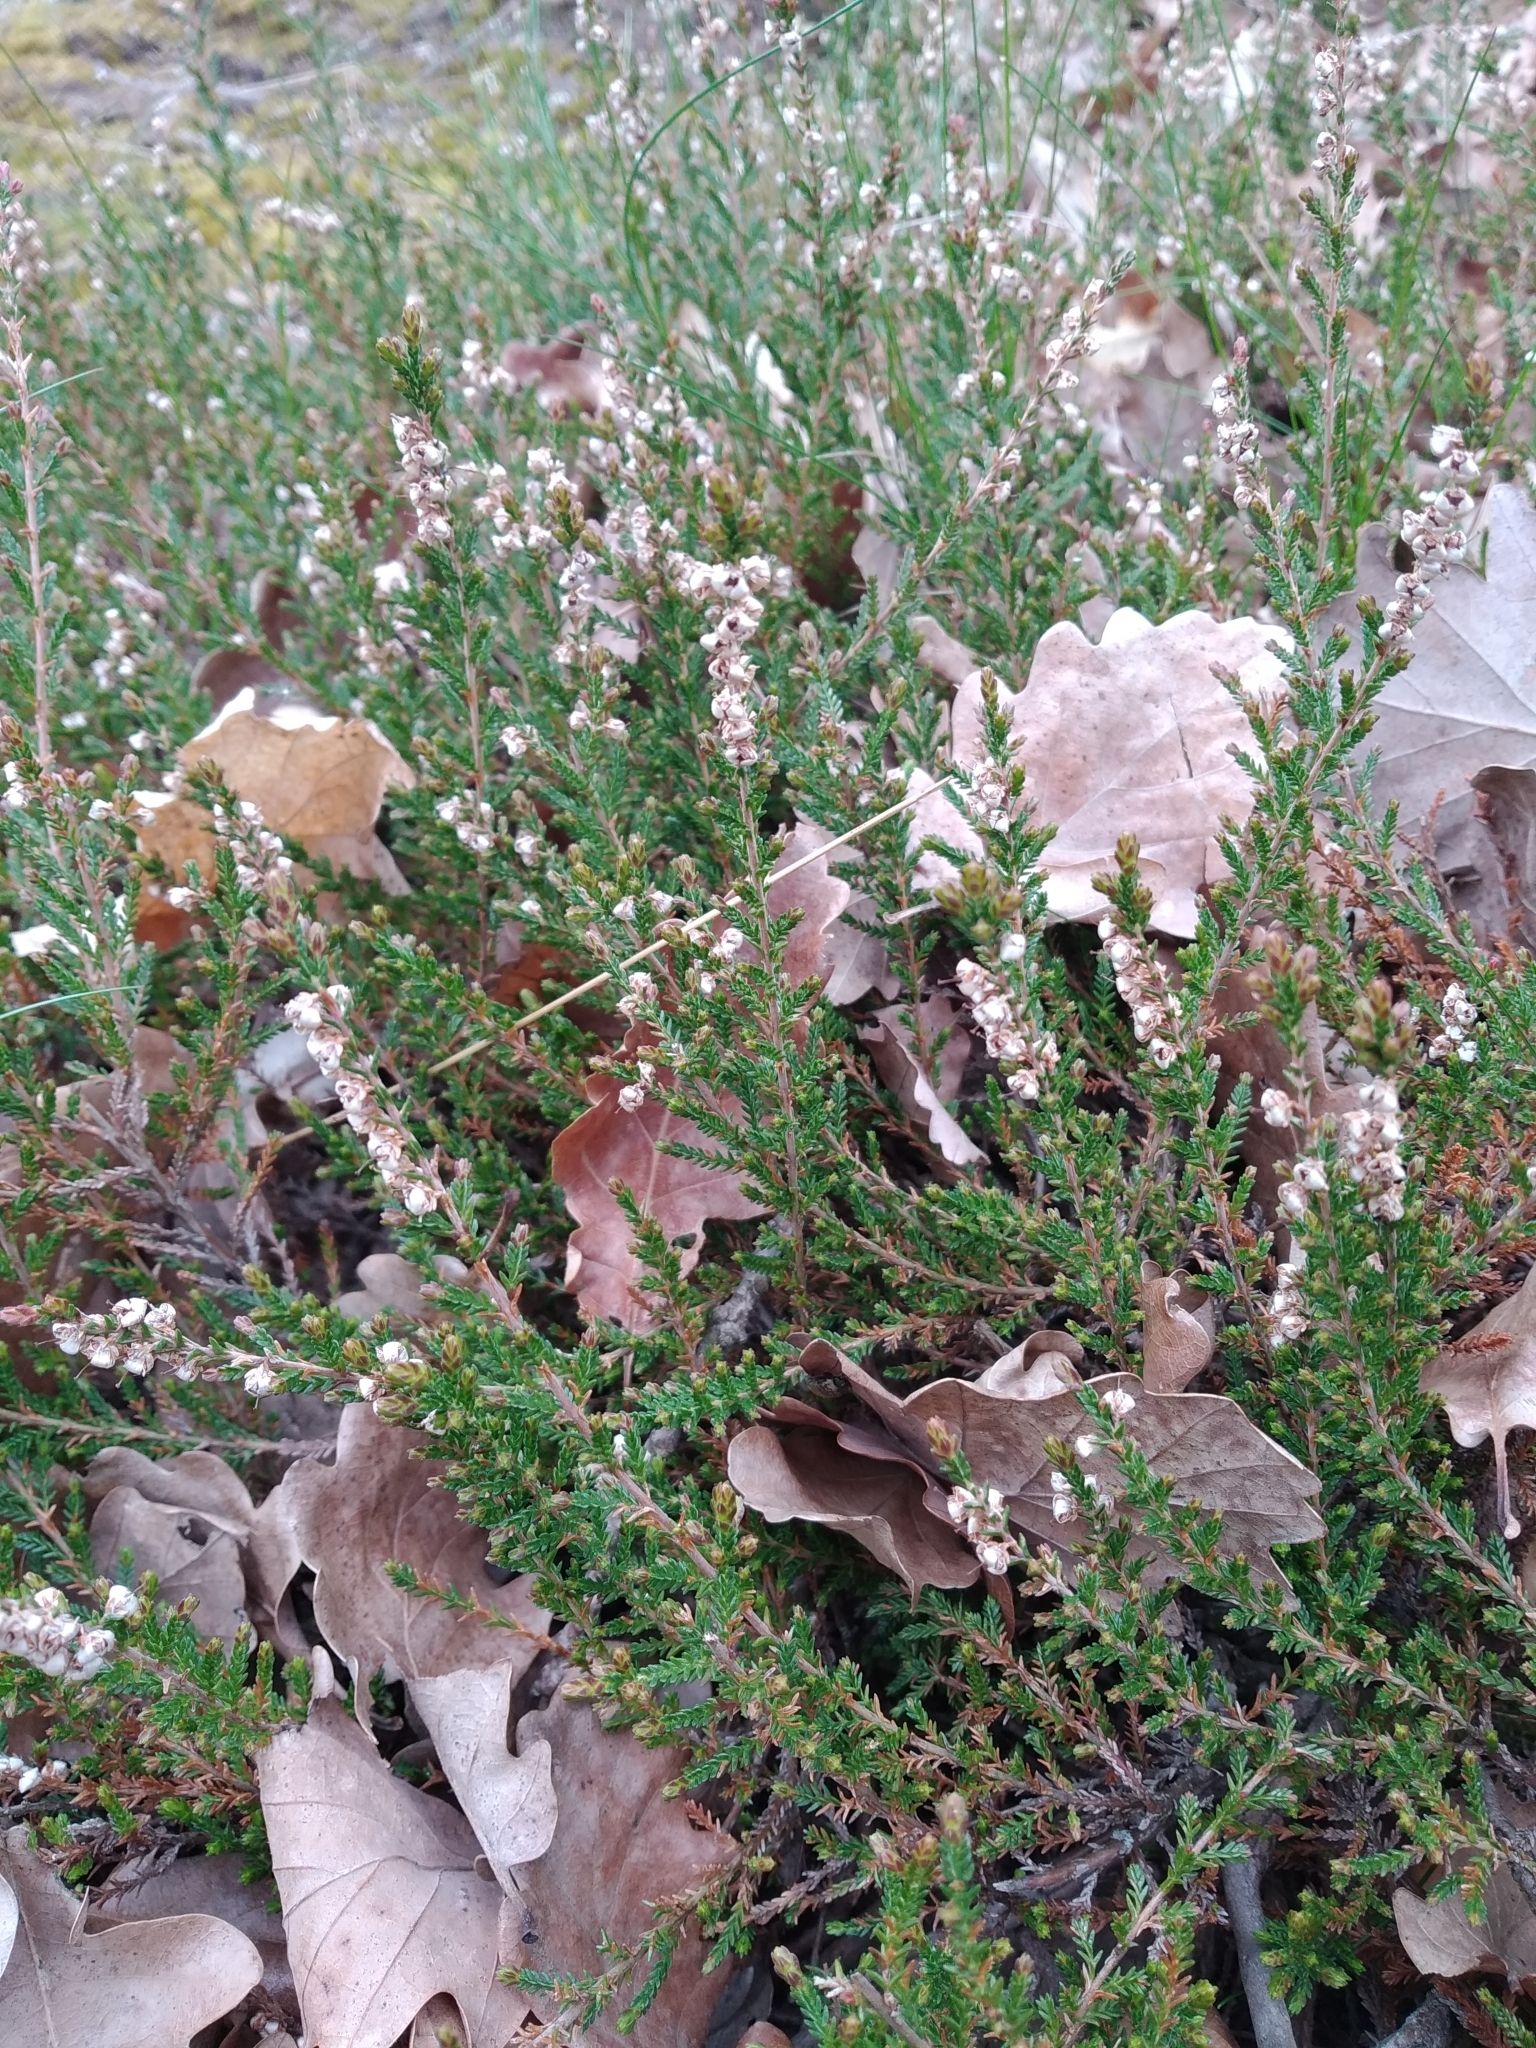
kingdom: Plantae
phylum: Tracheophyta
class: Magnoliopsida
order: Ericales
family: Ericaceae
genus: Calluna
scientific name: Calluna vulgaris
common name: Heather
